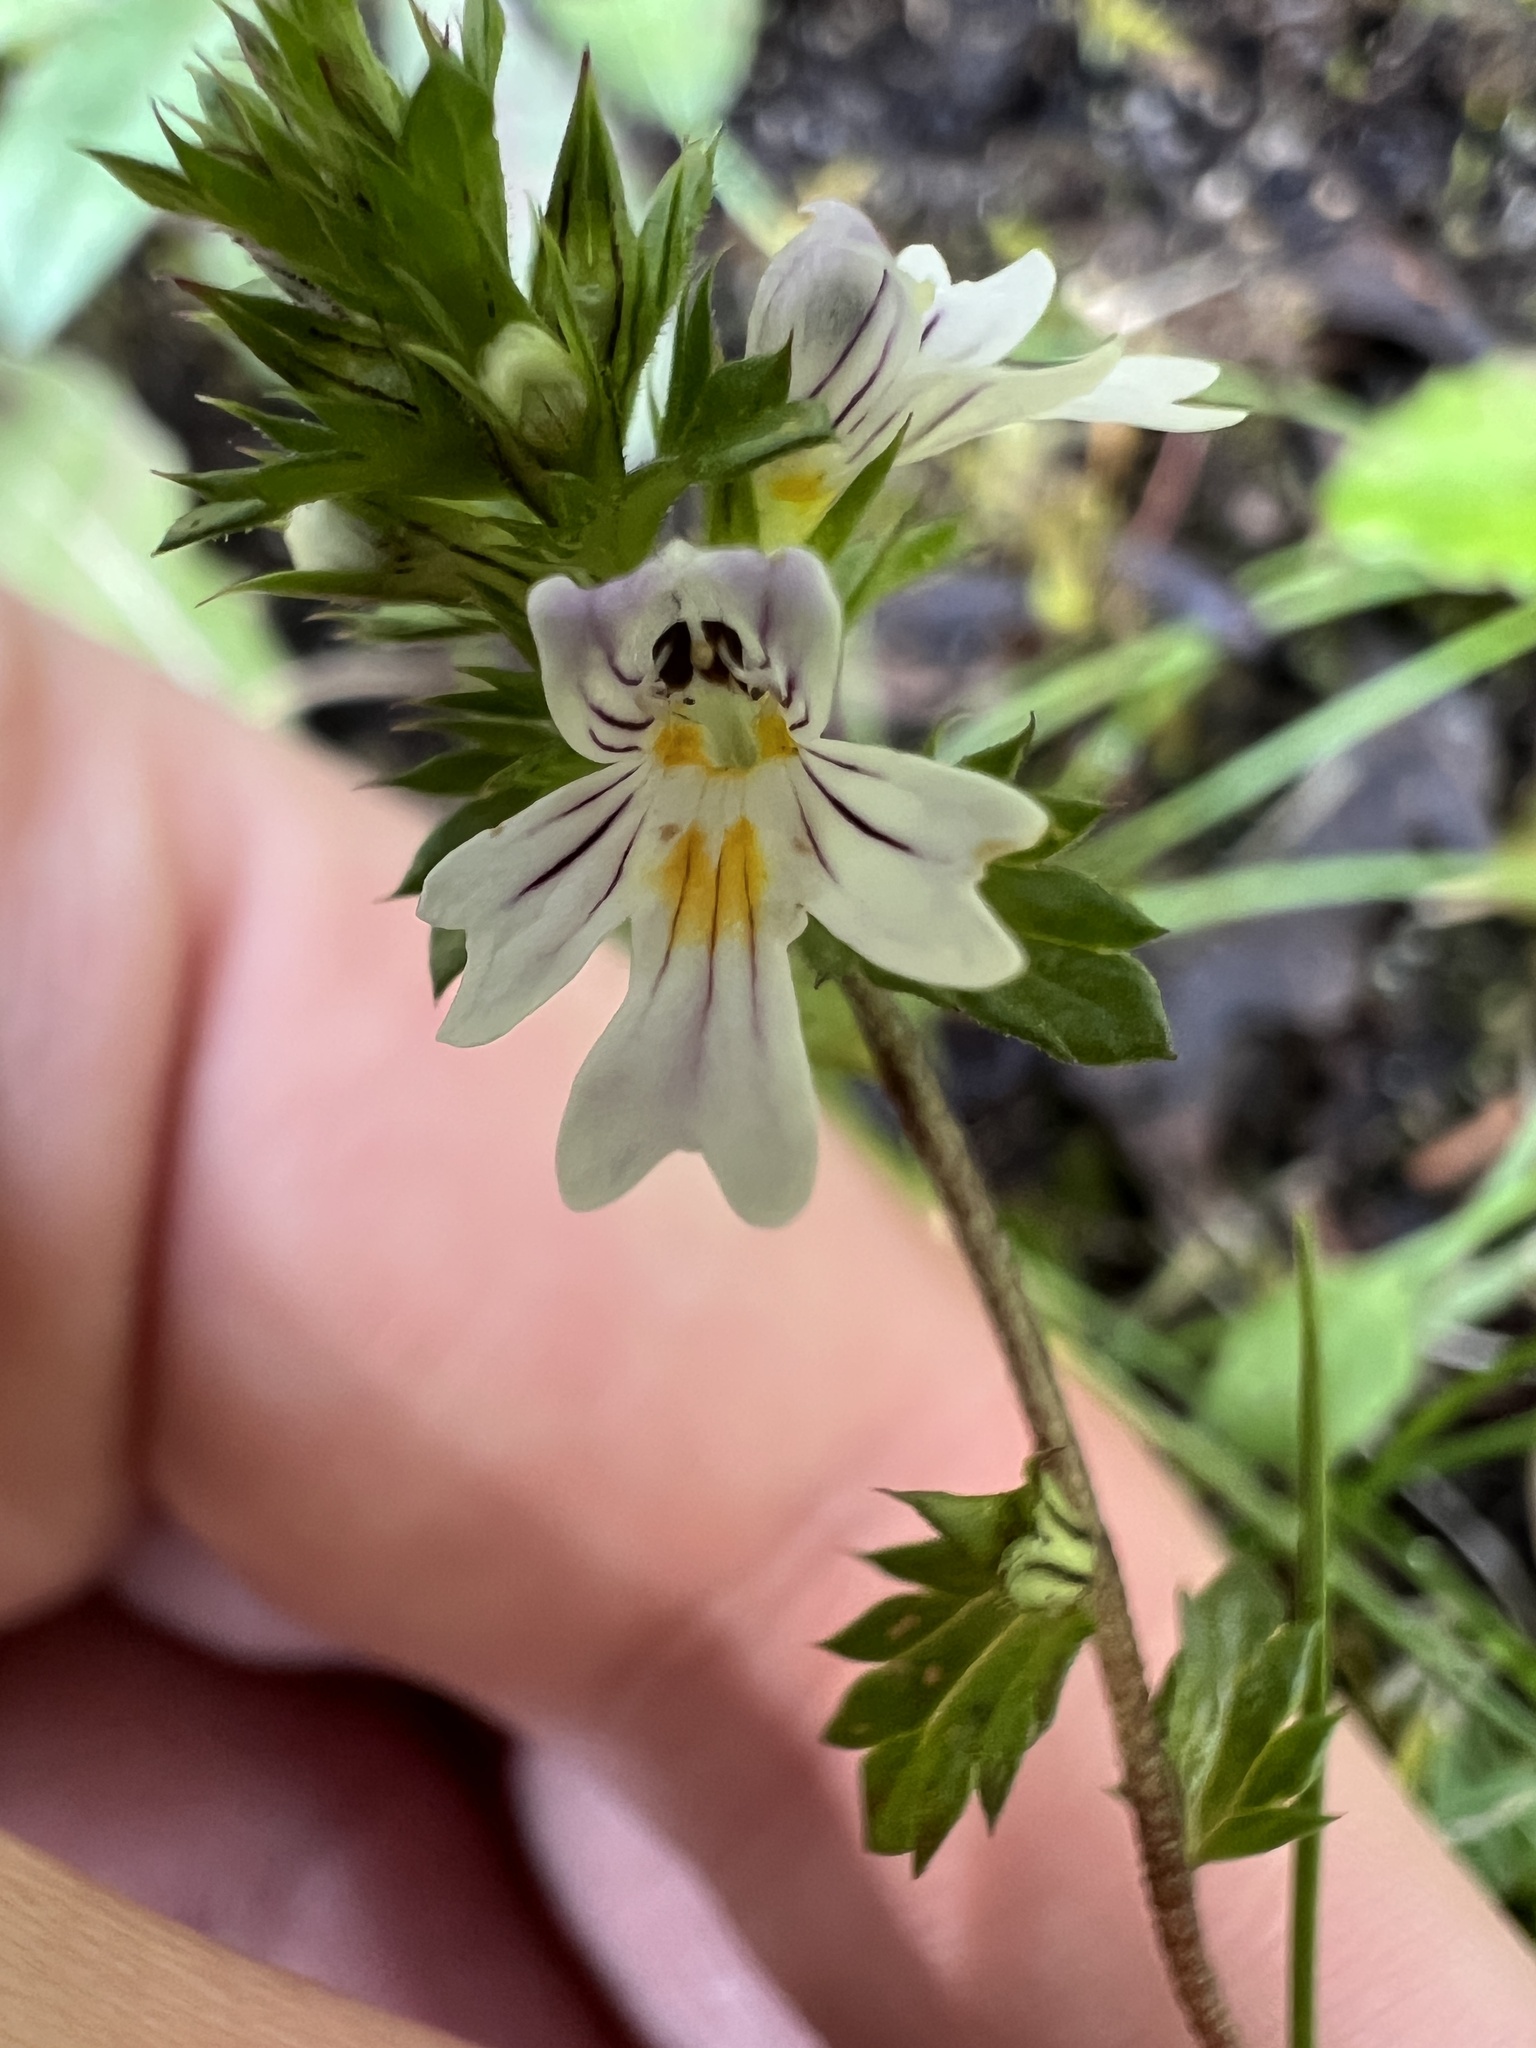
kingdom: Plantae
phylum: Tracheophyta
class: Magnoliopsida
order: Lamiales
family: Orobanchaceae
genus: Euphrasia
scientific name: Euphrasia nemorosa
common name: Common eyebright
